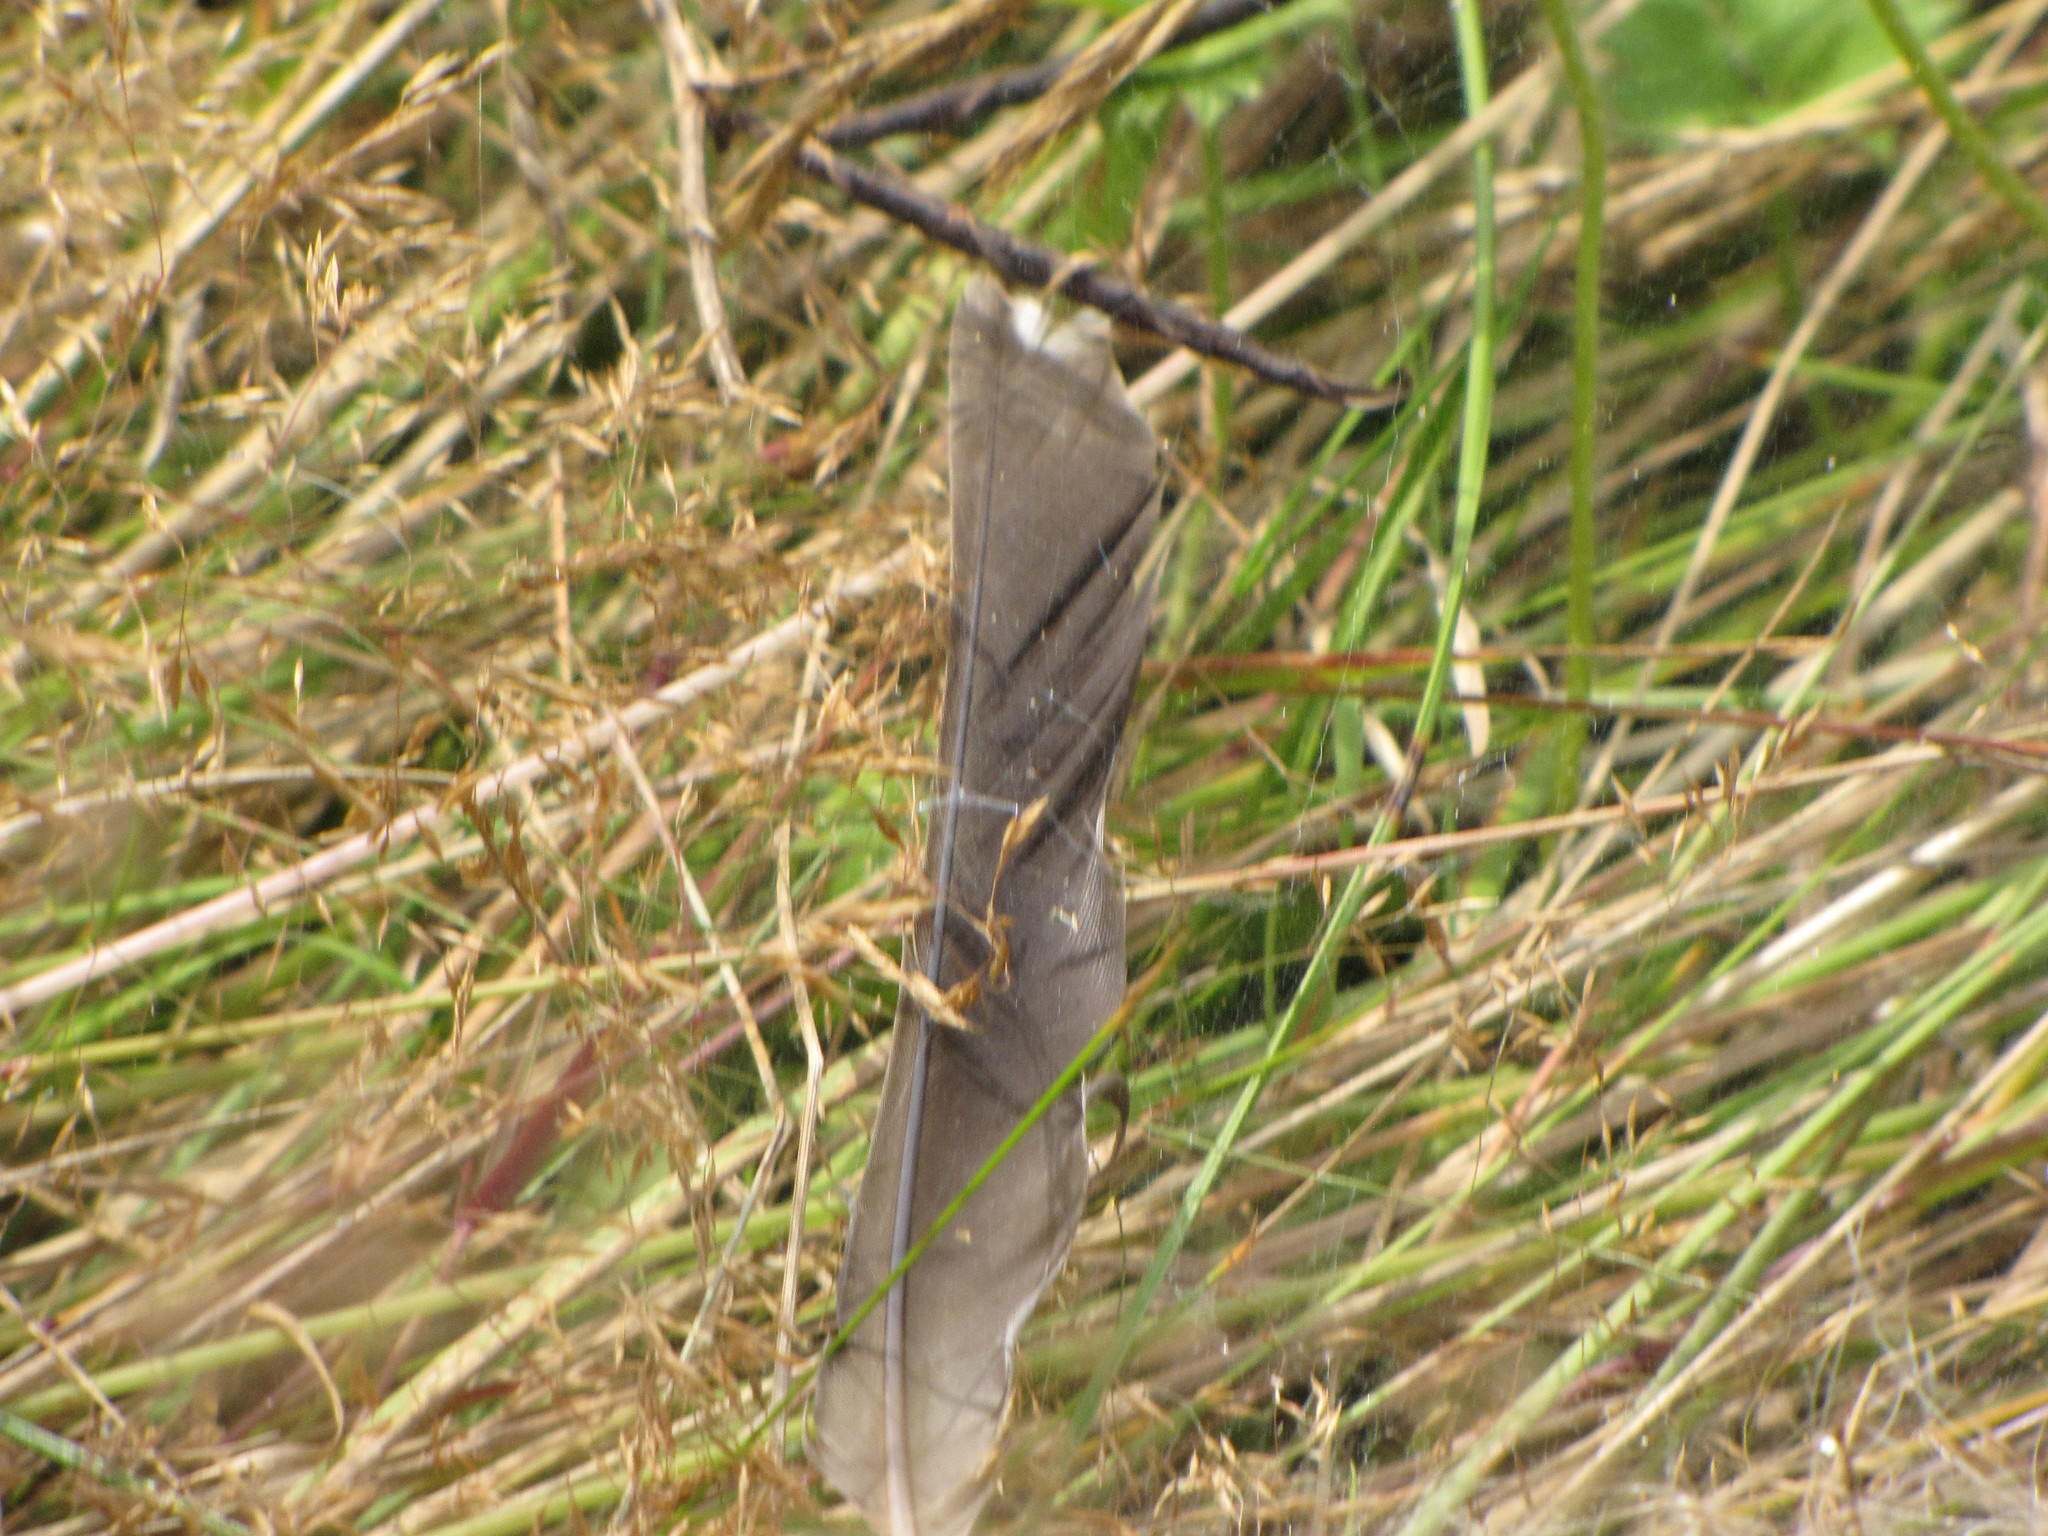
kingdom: Animalia
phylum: Chordata
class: Aves
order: Passeriformes
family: Turdidae
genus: Turdus
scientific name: Turdus migratorius
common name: American robin
